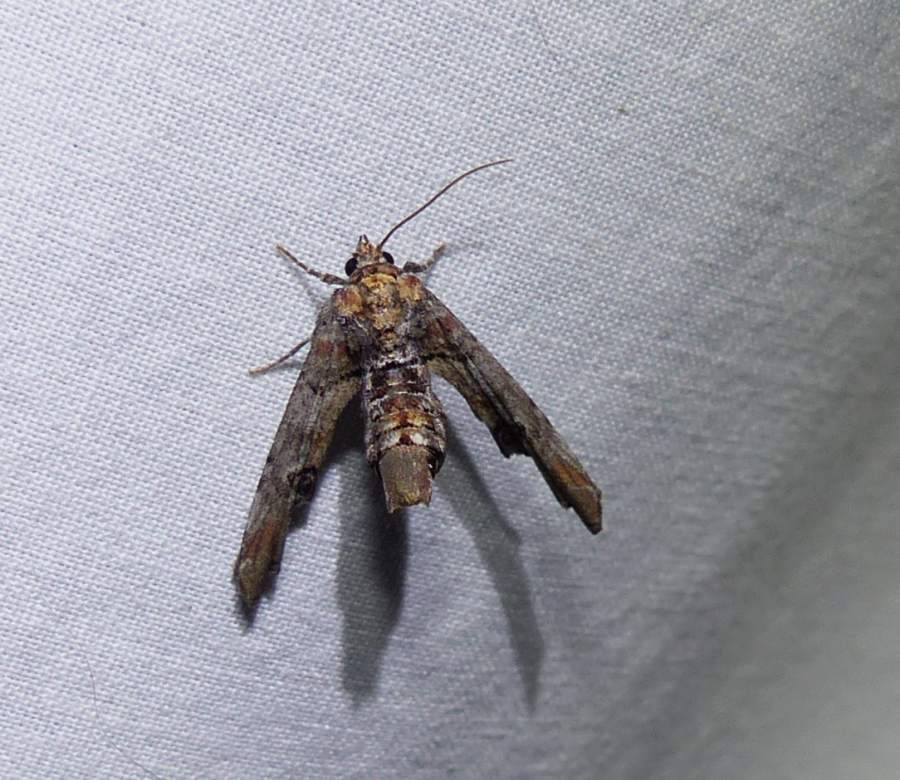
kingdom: Animalia
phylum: Arthropoda
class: Insecta
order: Lepidoptera
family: Euteliidae
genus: Marathyssa
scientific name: Marathyssa inficita
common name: Dark marathyssa moth
